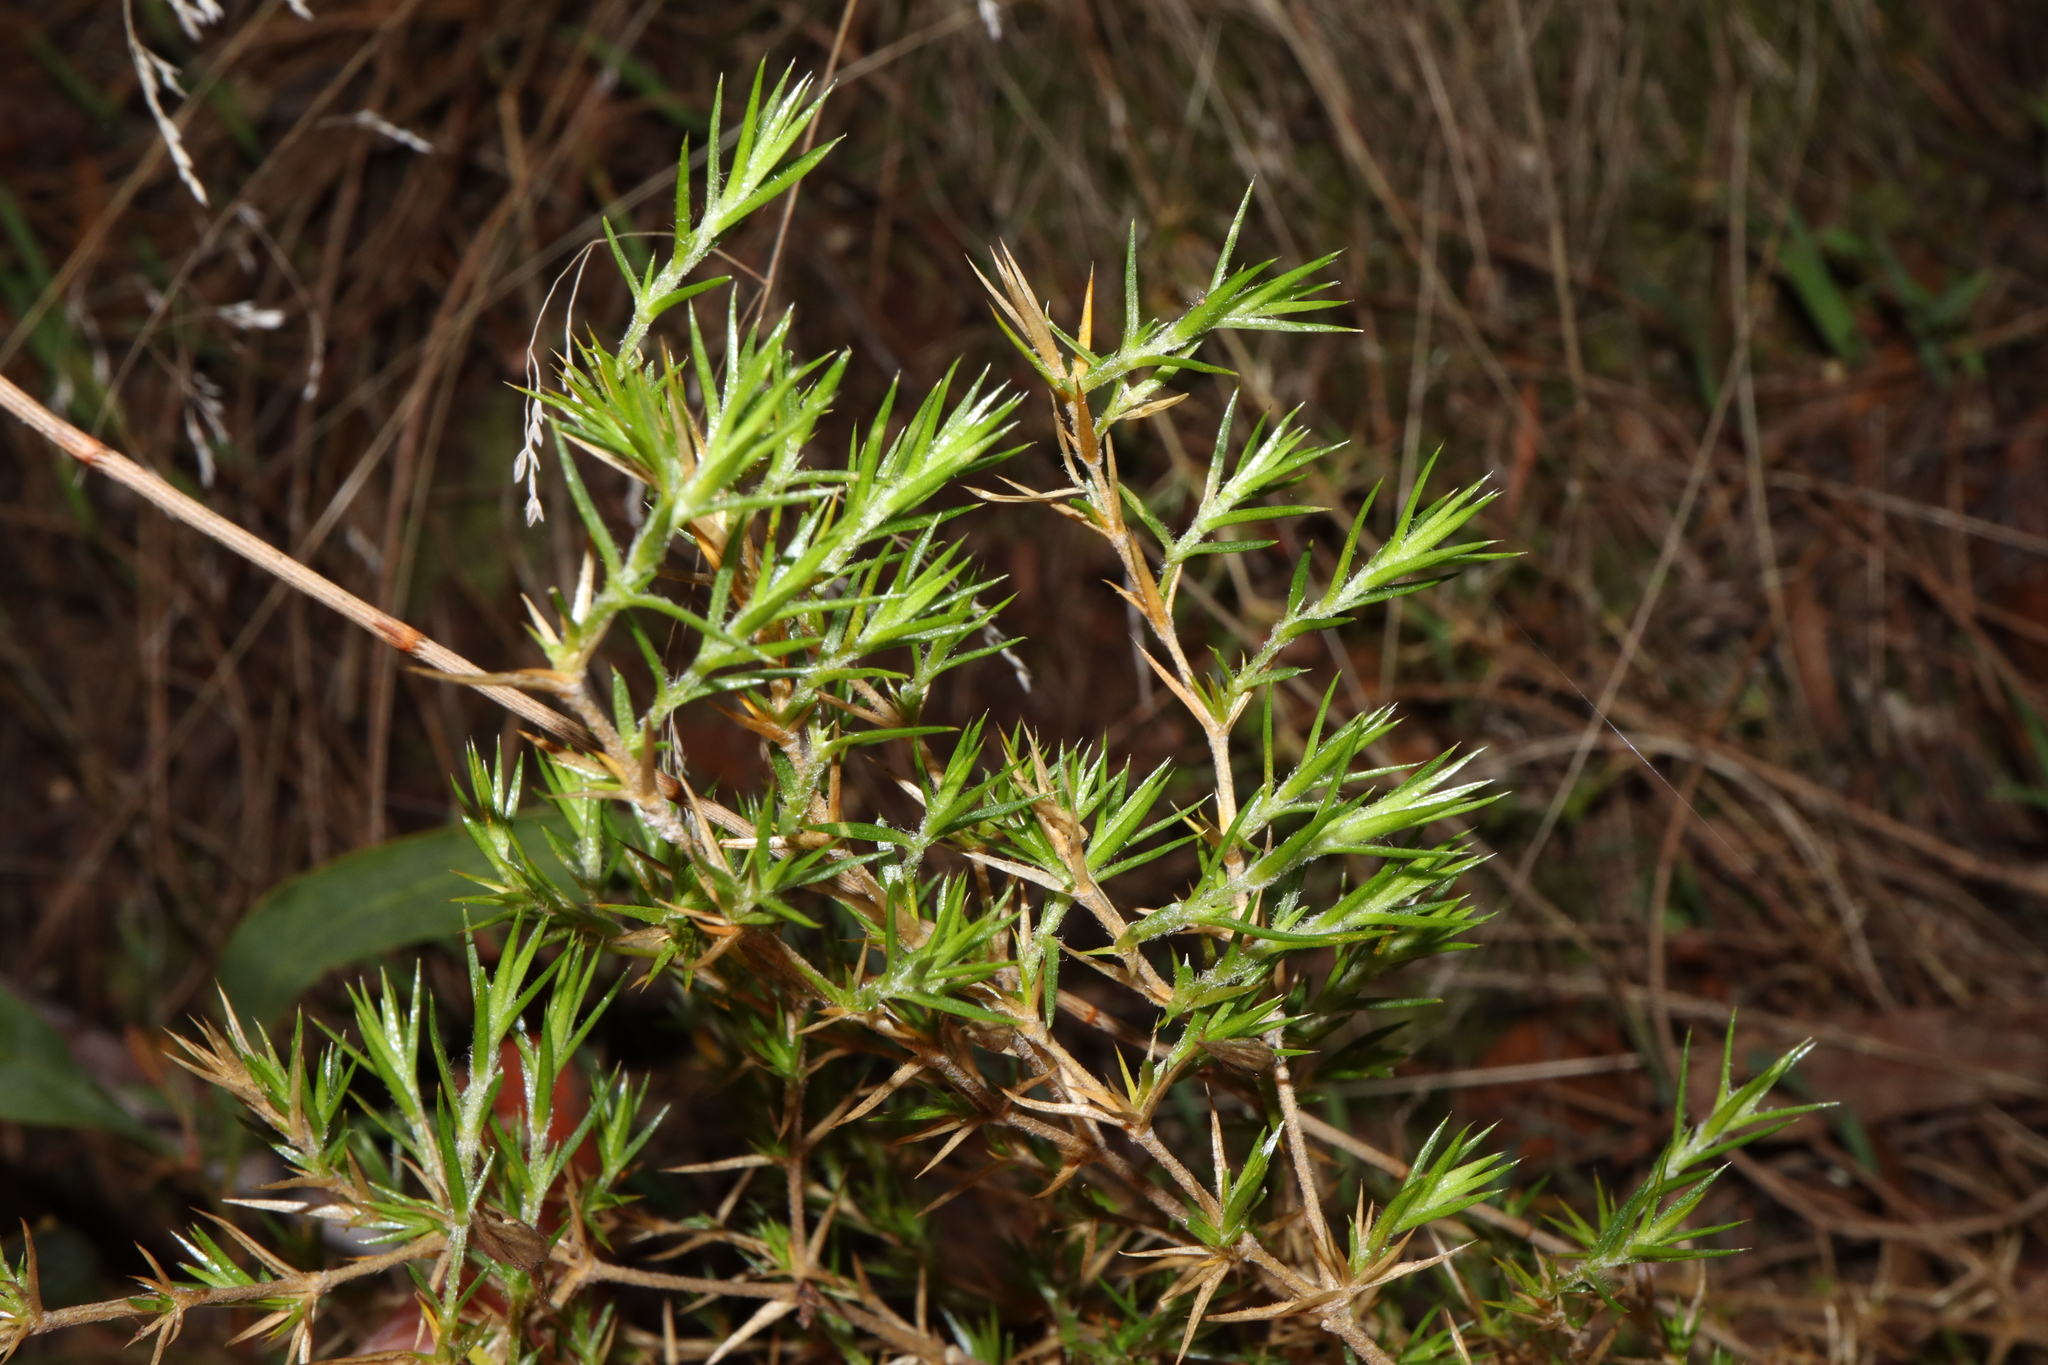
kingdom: Plantae
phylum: Tracheophyta
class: Magnoliopsida
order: Caryophyllales
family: Caryophyllaceae
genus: Stellaria
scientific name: Stellaria pungens
